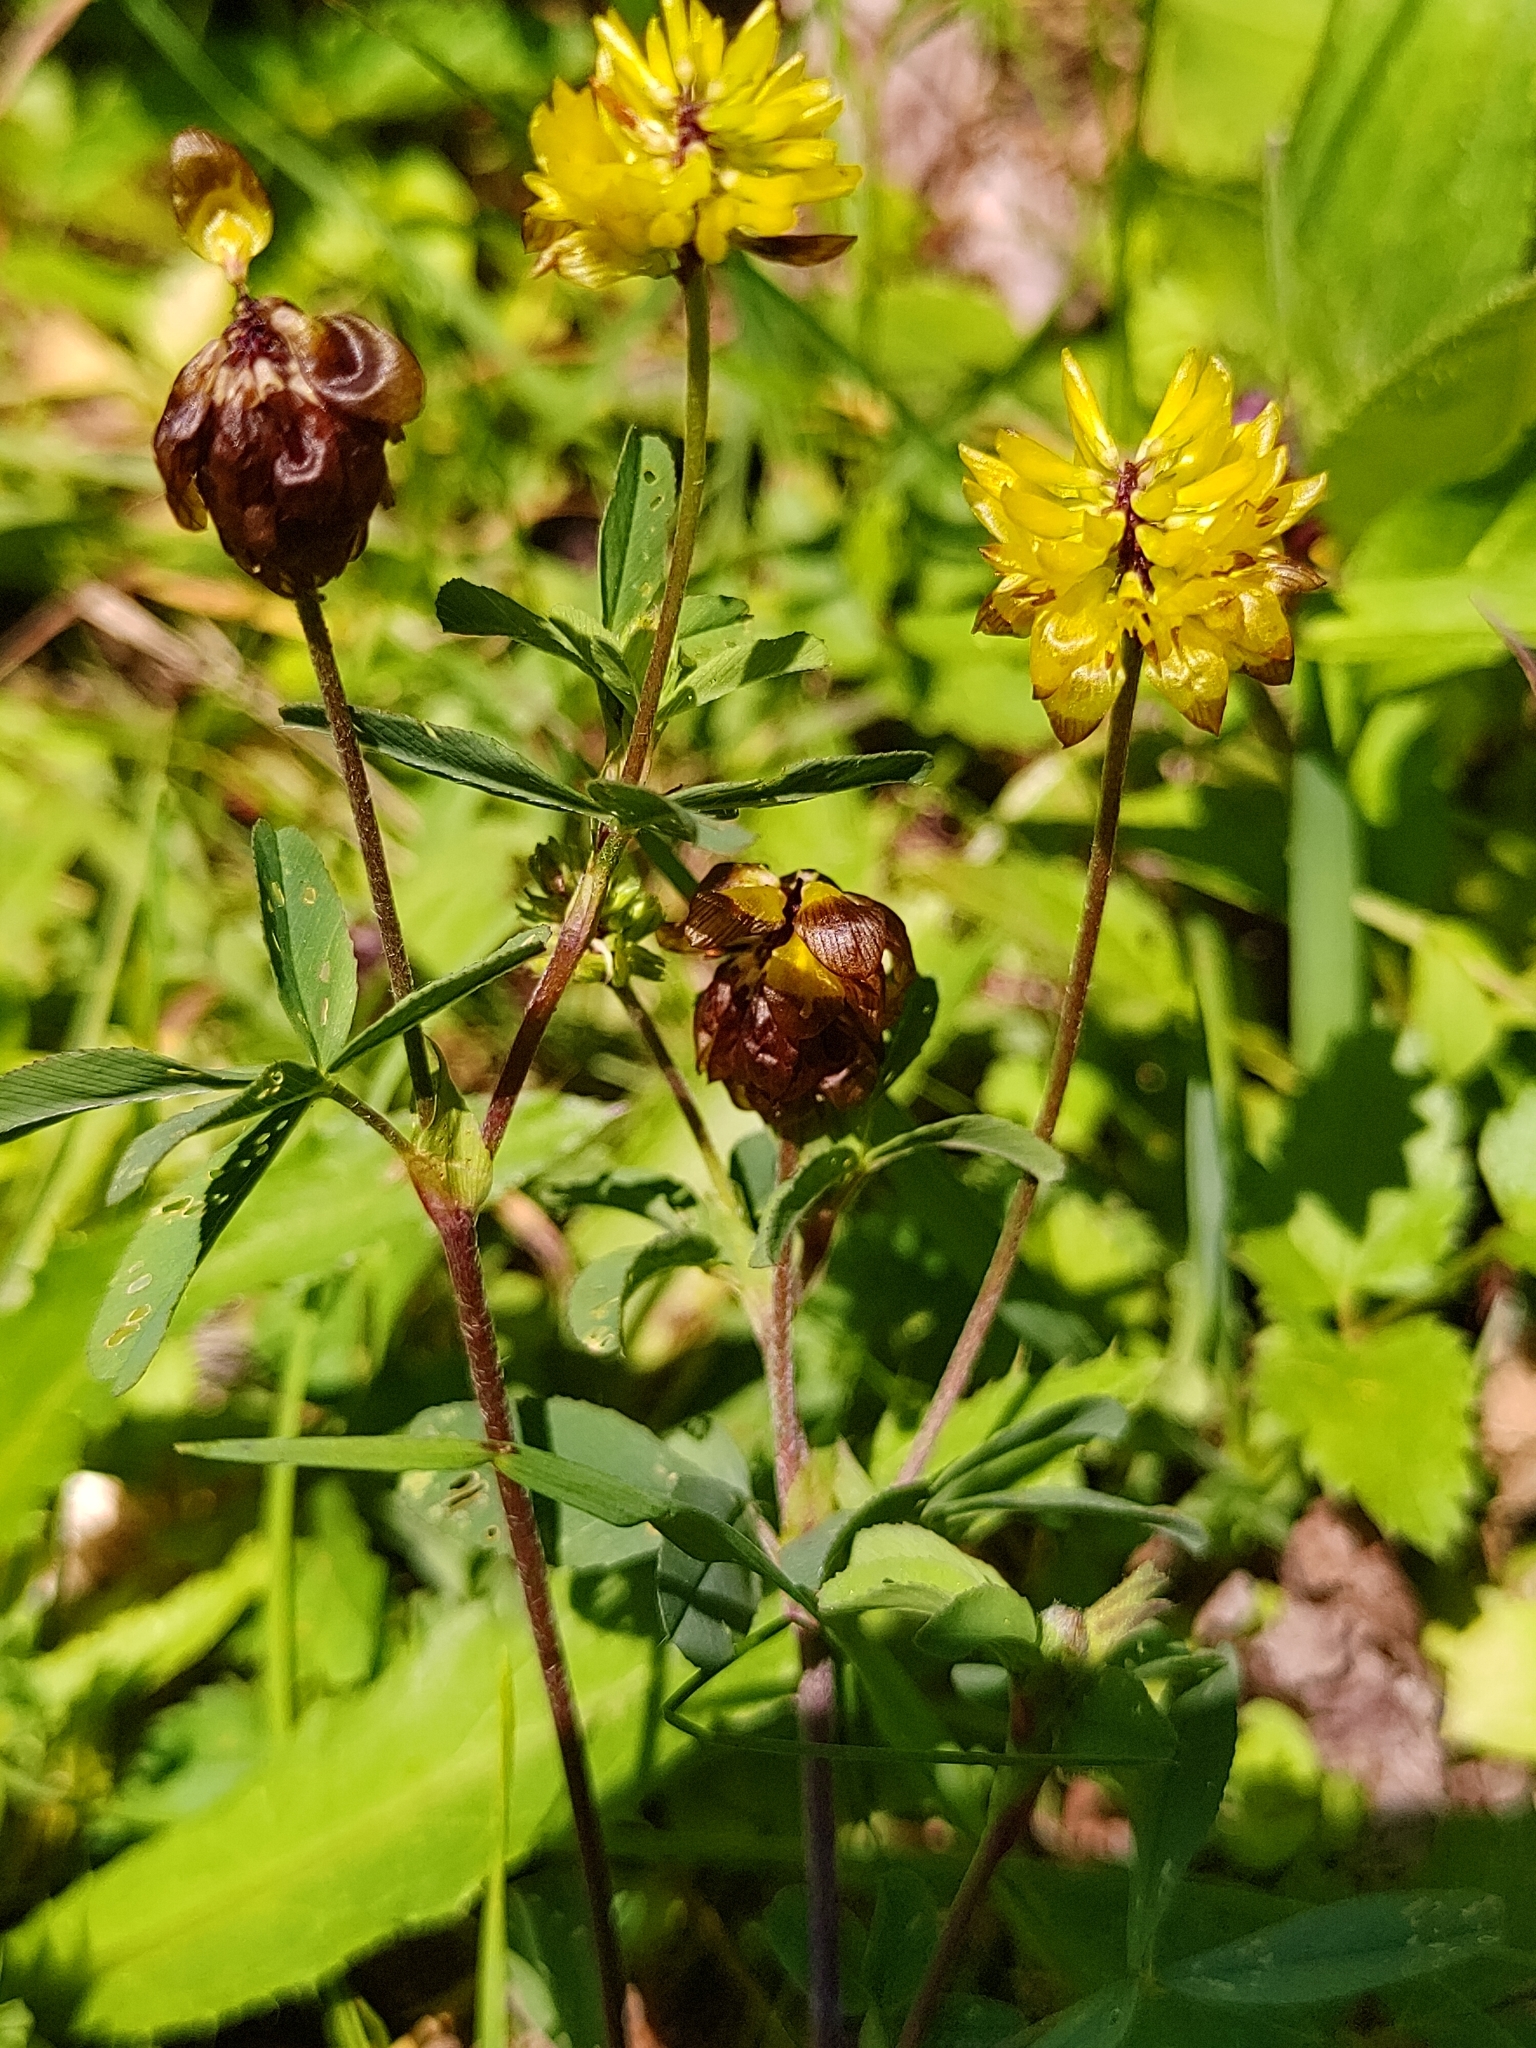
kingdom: Plantae
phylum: Tracheophyta
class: Magnoliopsida
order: Fabales
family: Fabaceae
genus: Trifolium
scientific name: Trifolium badium
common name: Brown clover
